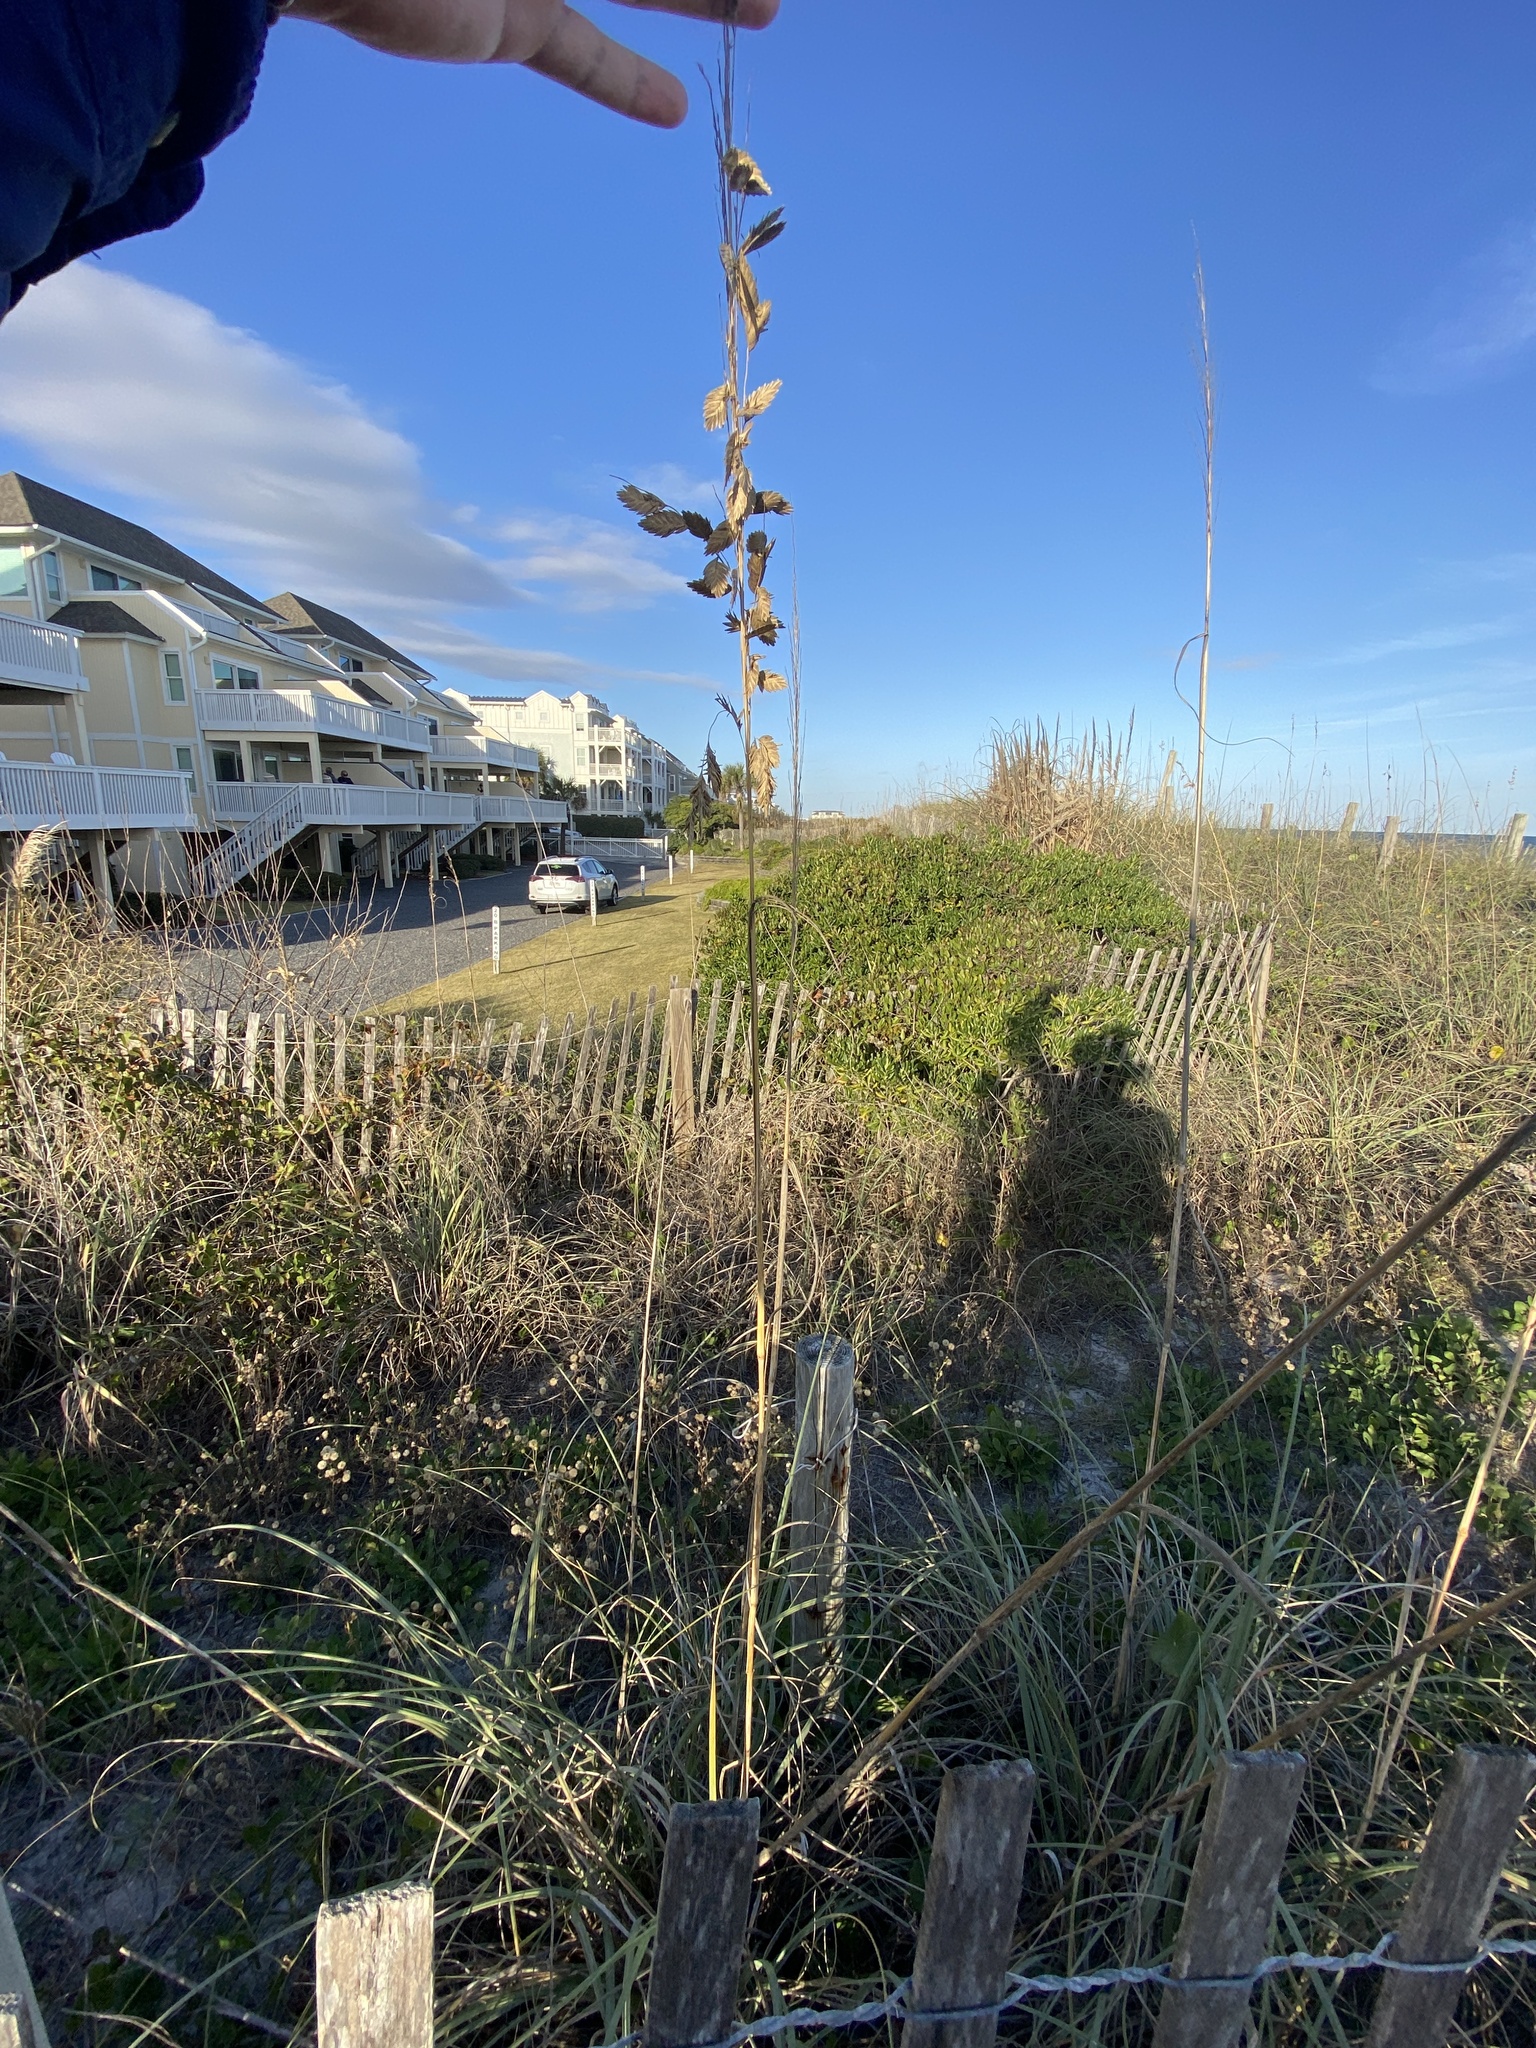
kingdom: Plantae
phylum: Tracheophyta
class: Liliopsida
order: Poales
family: Poaceae
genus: Uniola
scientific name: Uniola paniculata
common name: Seaside-oats
